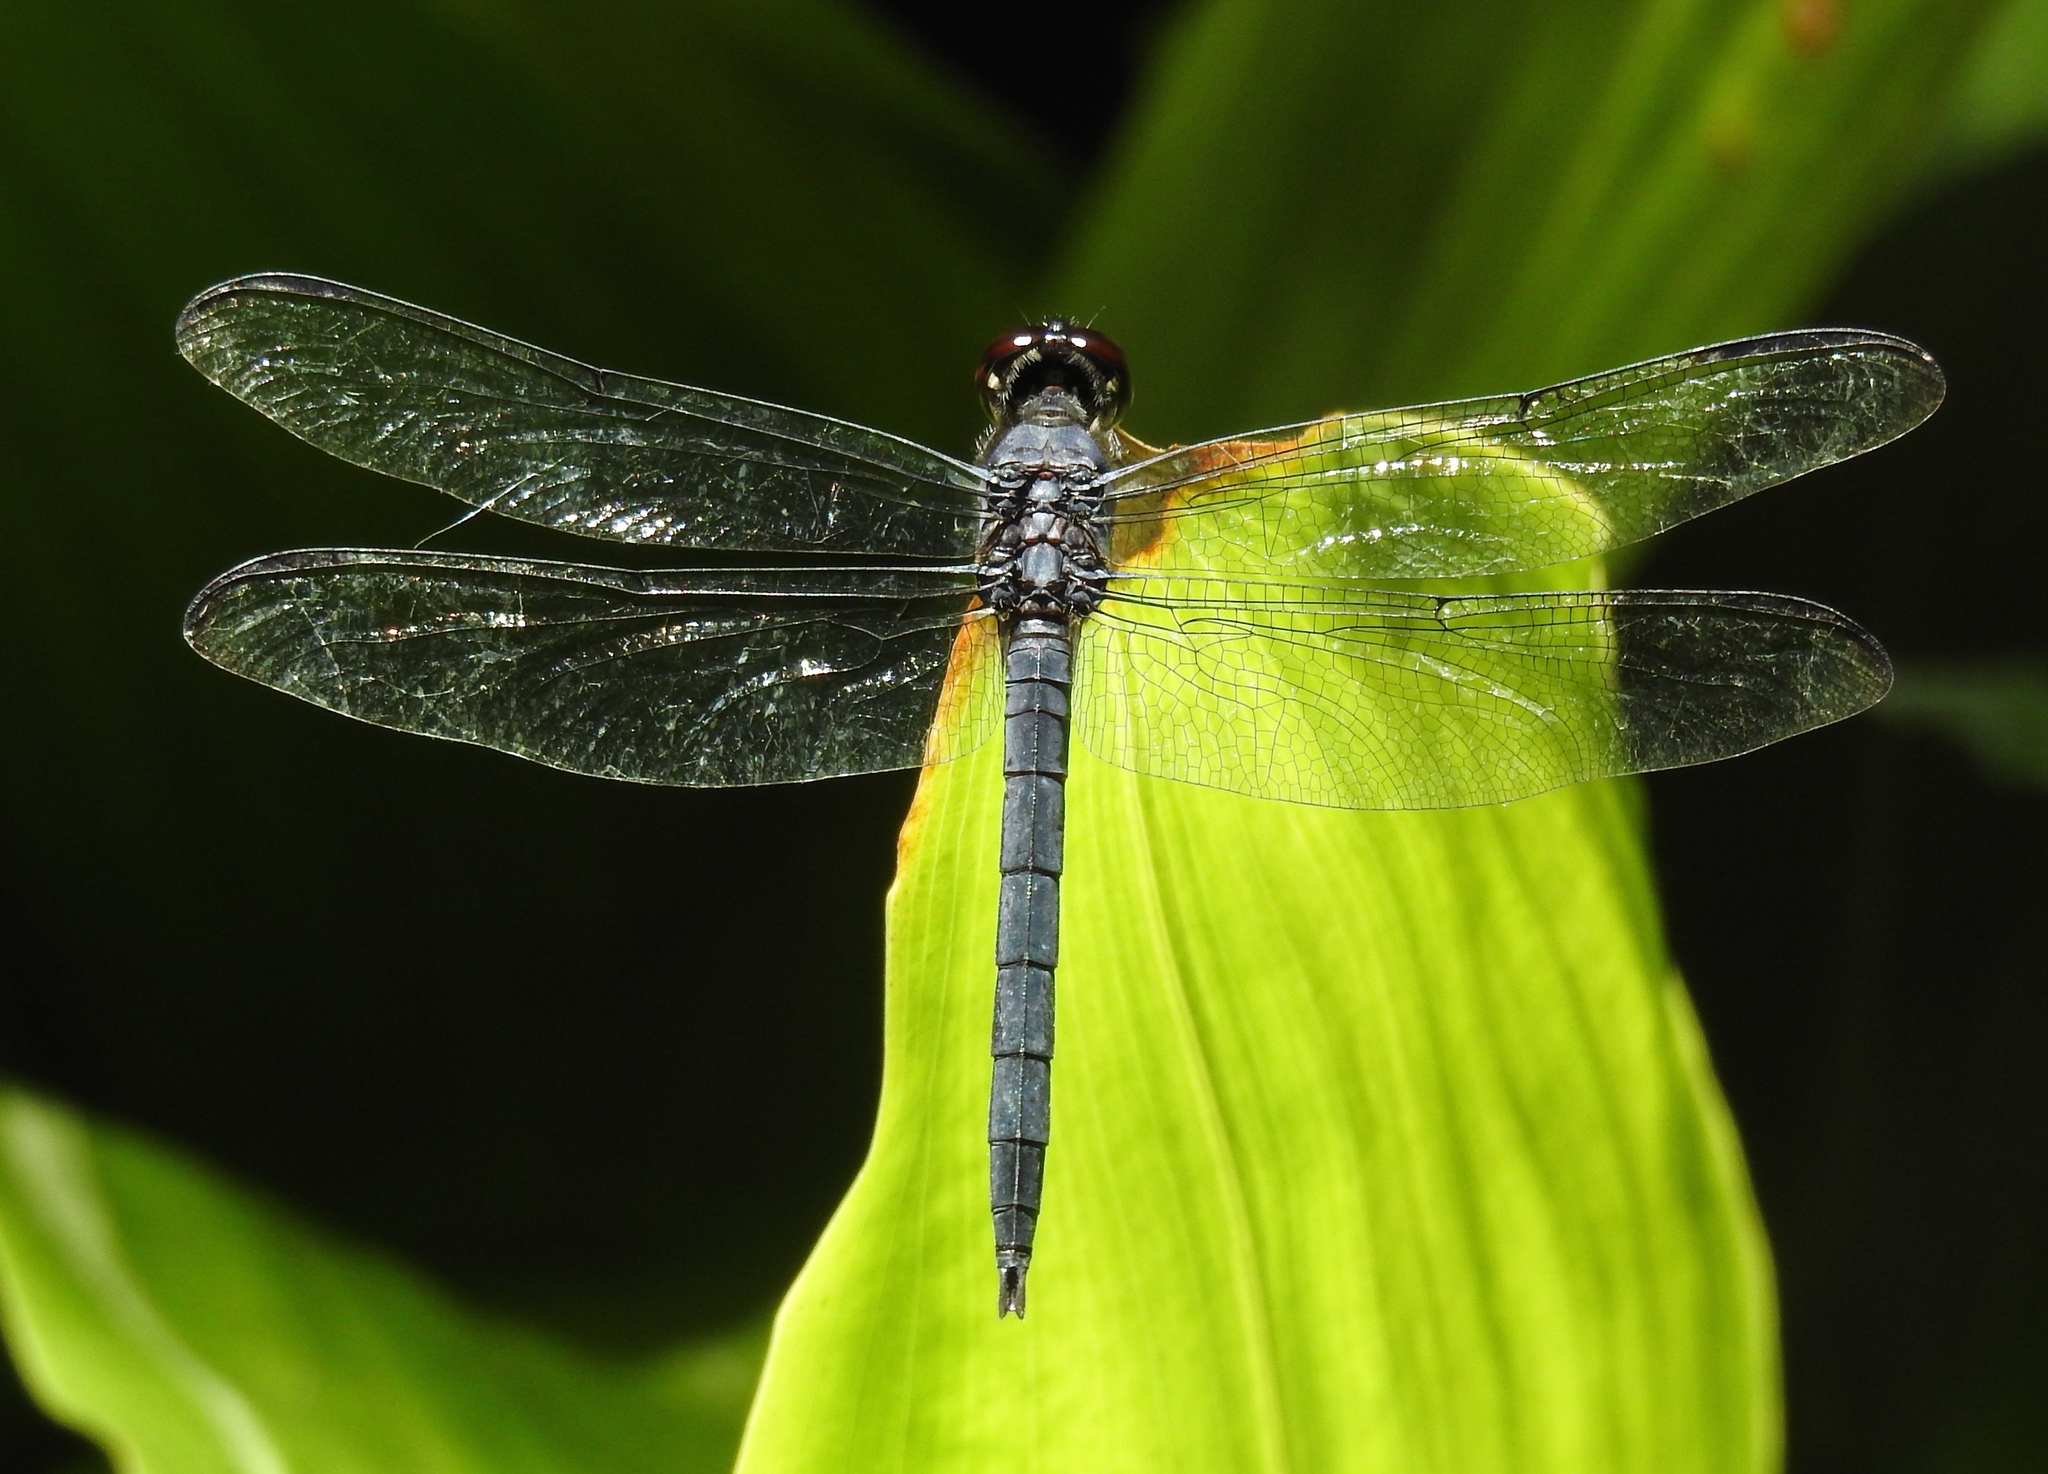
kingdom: Animalia
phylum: Arthropoda
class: Insecta
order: Odonata
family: Libellulidae
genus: Libellula
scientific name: Libellula incesta
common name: Slaty skimmer
